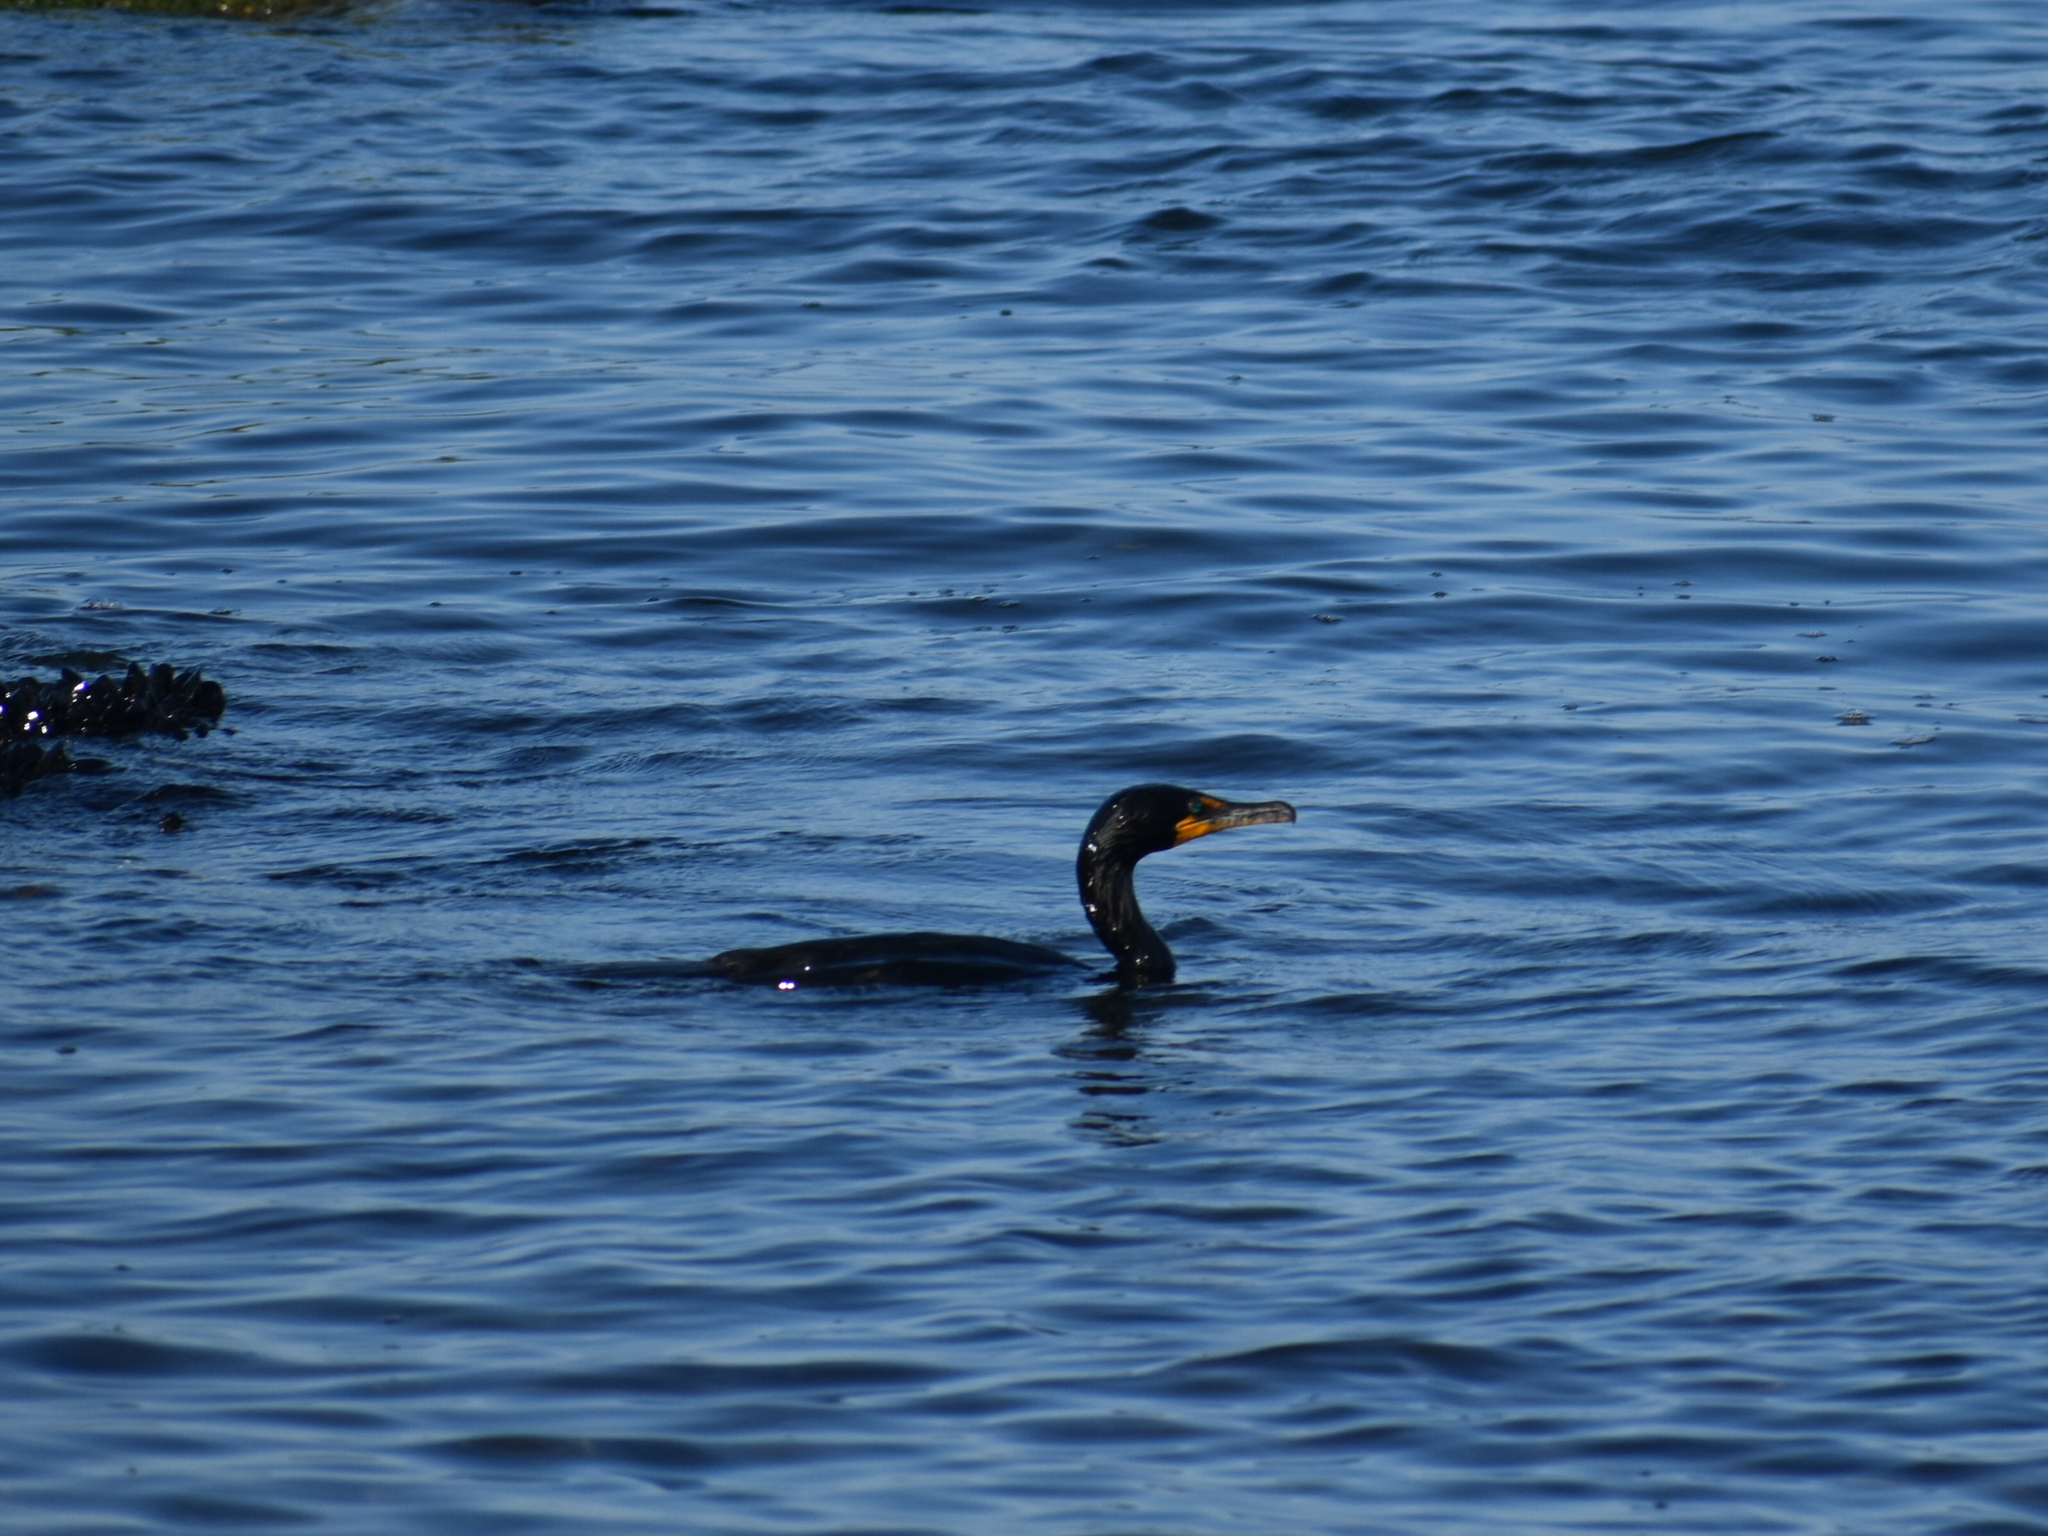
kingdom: Animalia
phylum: Chordata
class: Aves
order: Suliformes
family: Phalacrocoracidae
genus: Phalacrocorax
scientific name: Phalacrocorax auritus
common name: Double-crested cormorant
